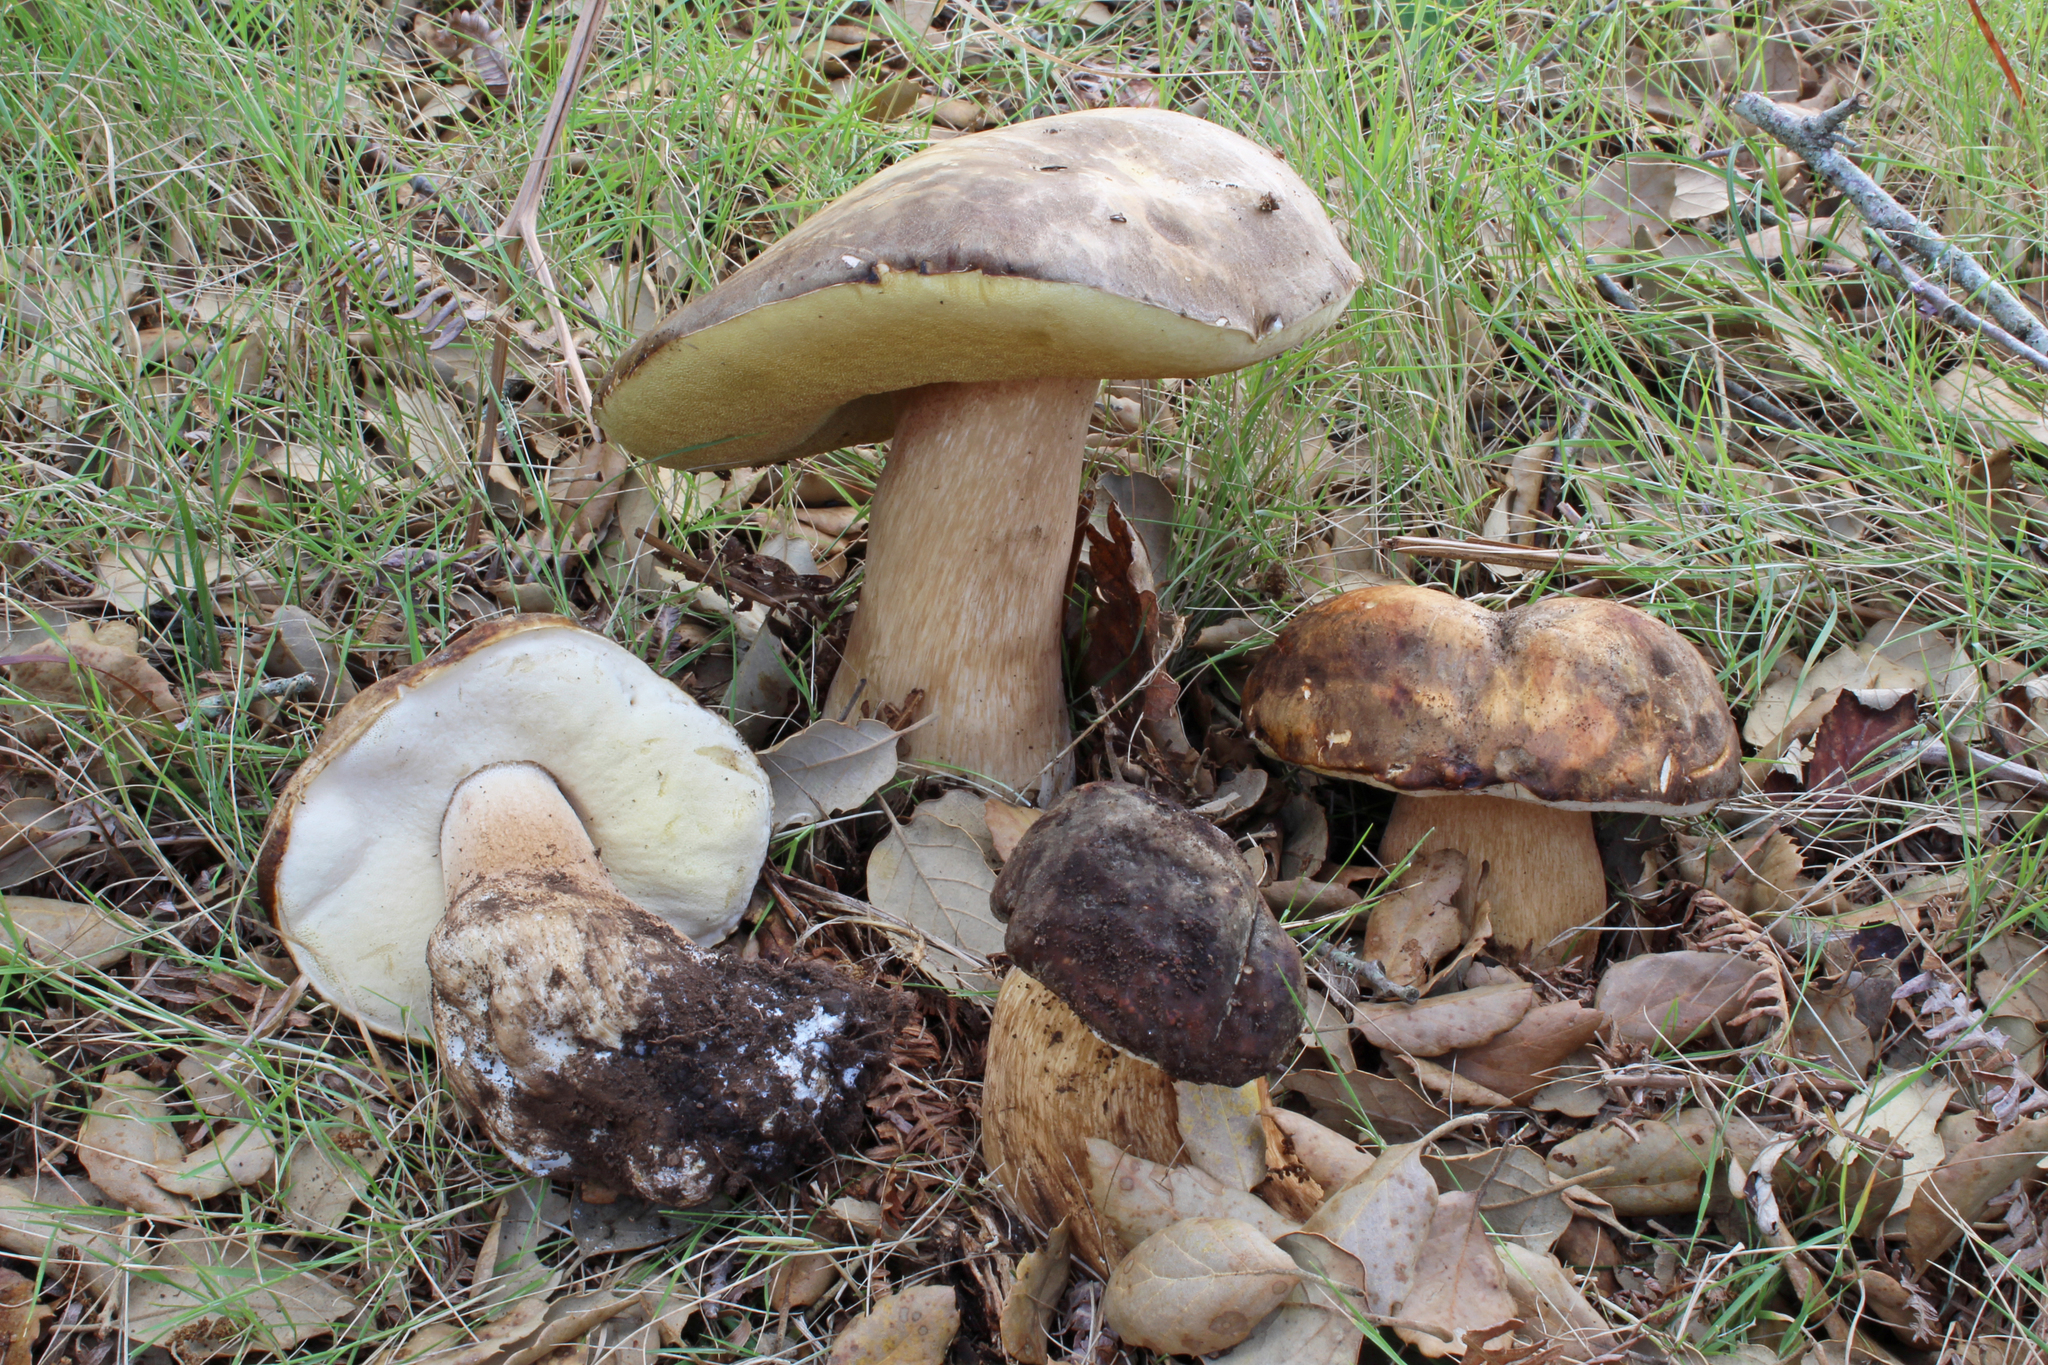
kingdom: Fungi
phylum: Basidiomycota
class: Agaricomycetes
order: Boletales
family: Boletaceae
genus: Boletus
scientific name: Boletus aereus
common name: Bronze bolete
